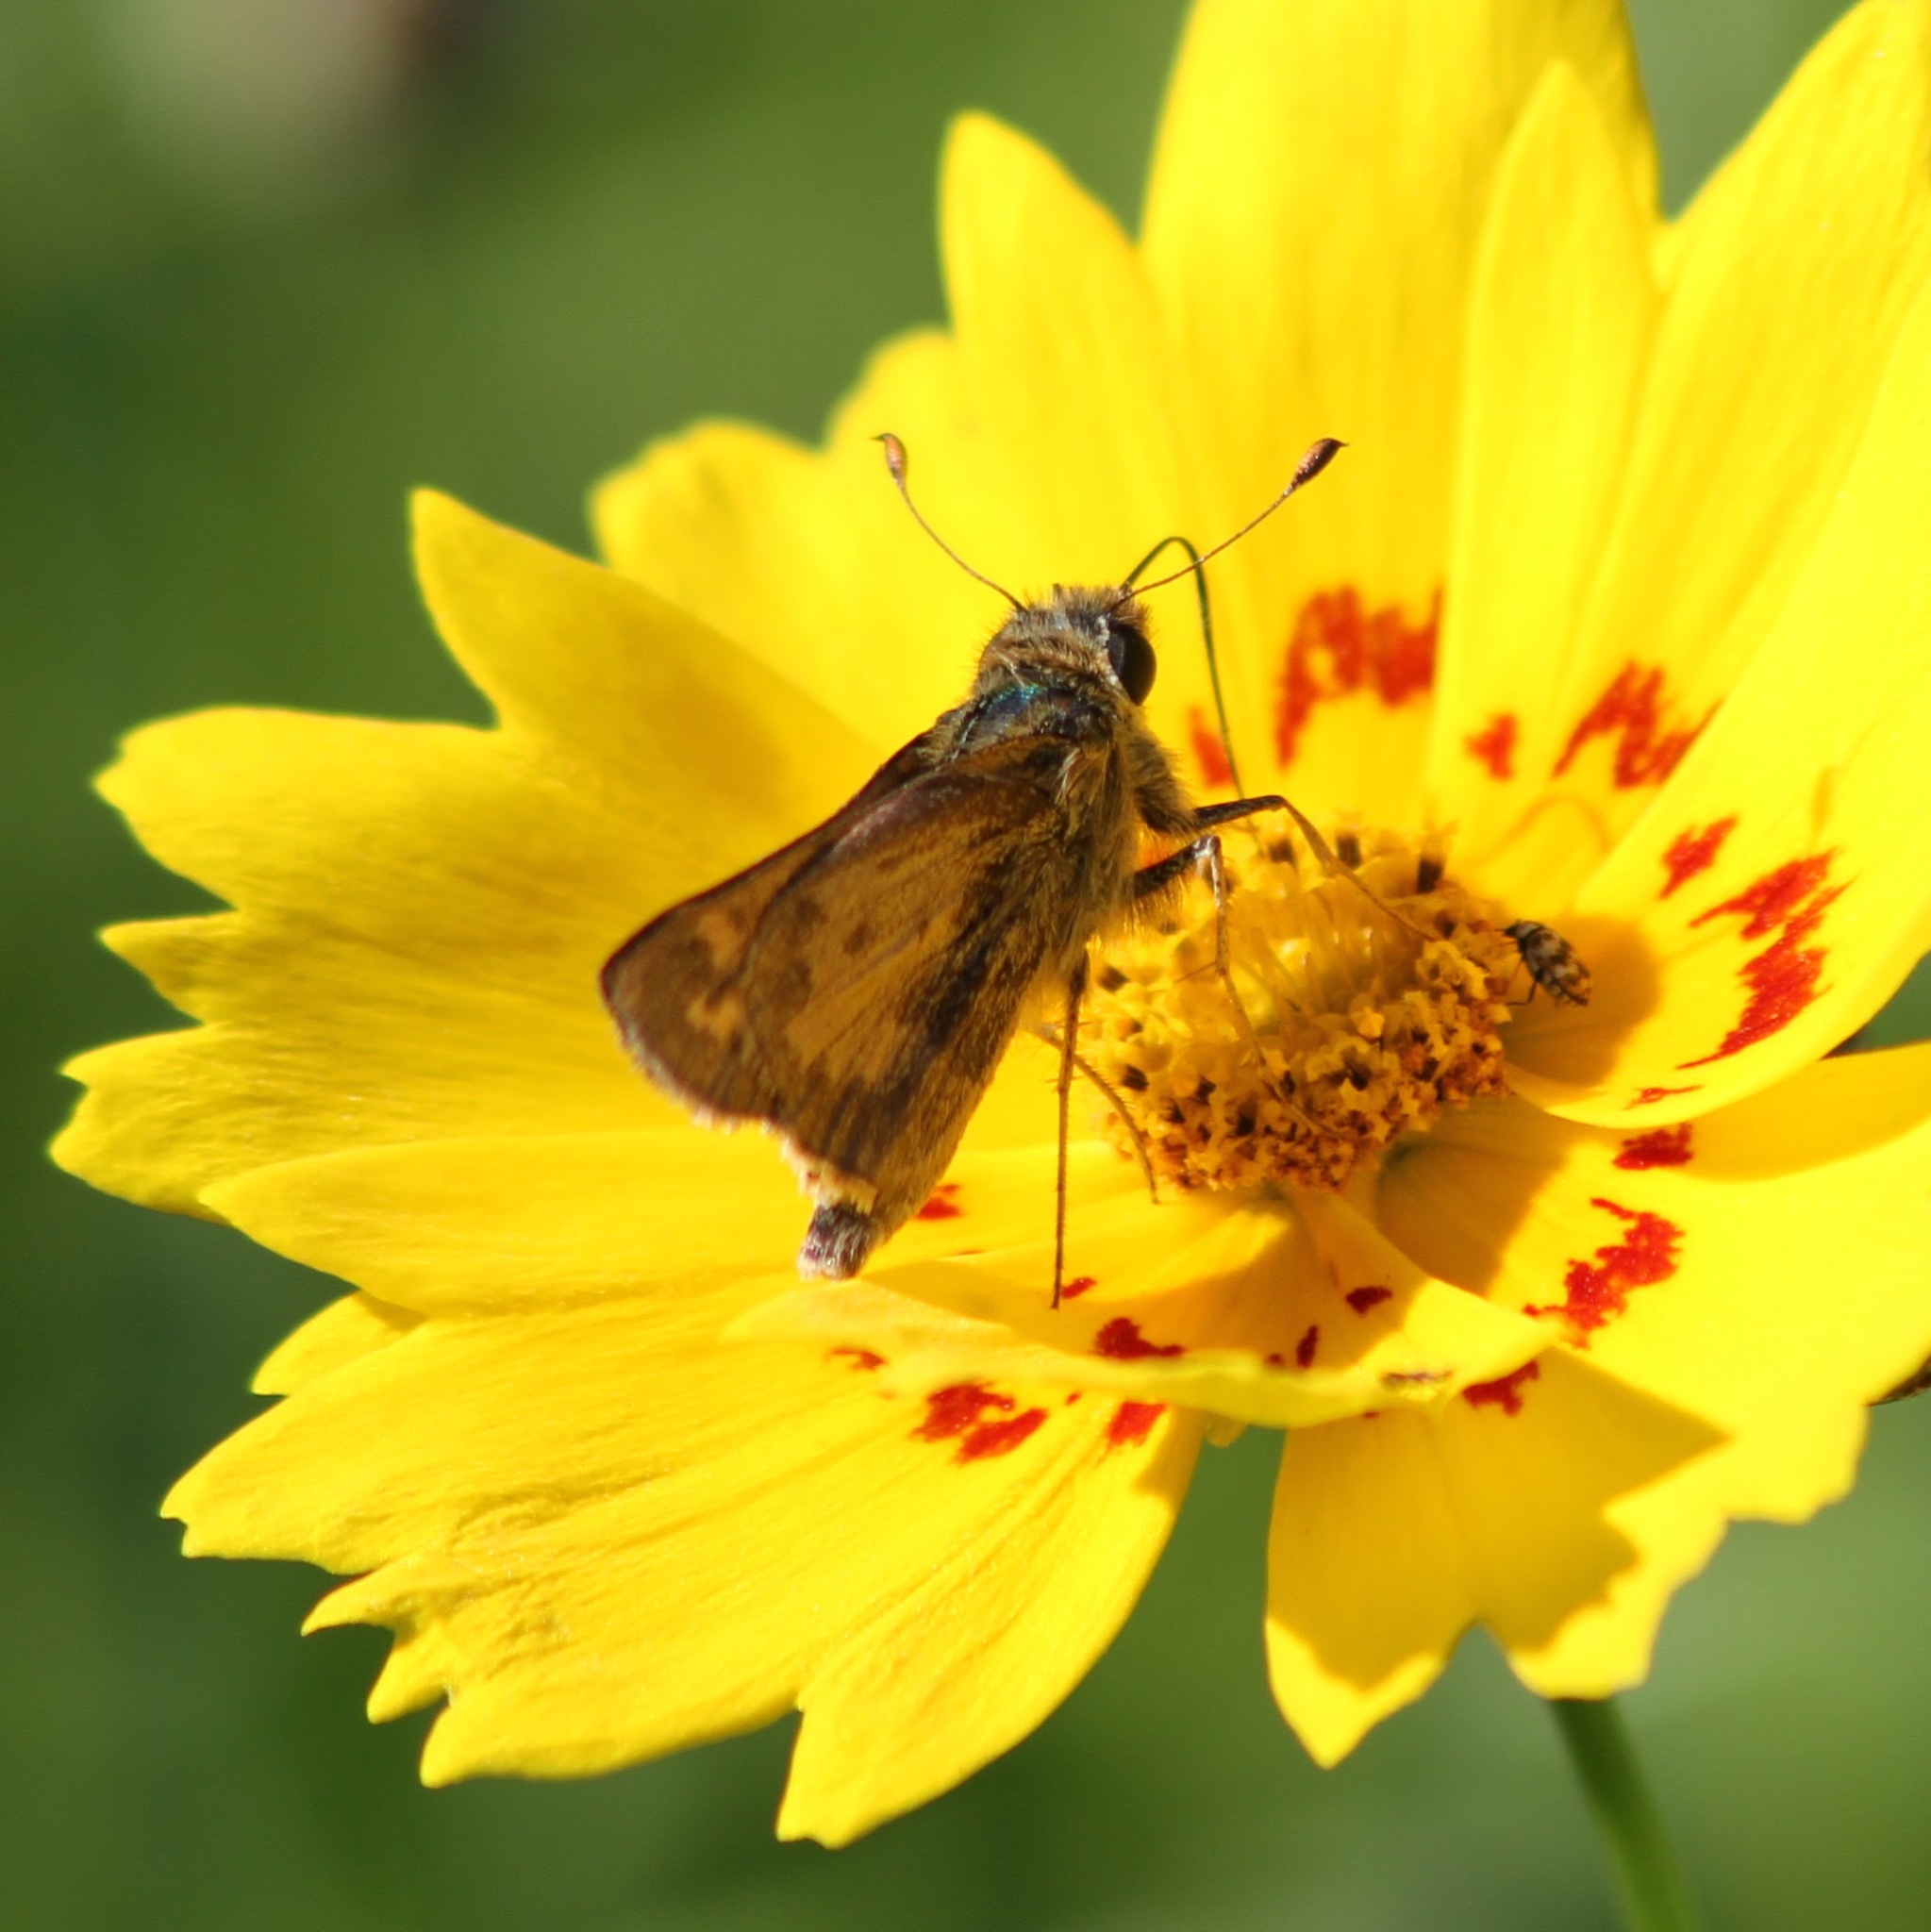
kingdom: Animalia
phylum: Arthropoda
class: Insecta
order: Lepidoptera
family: Hesperiidae
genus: Hylephila
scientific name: Hylephila phyleus
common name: Fiery skipper
